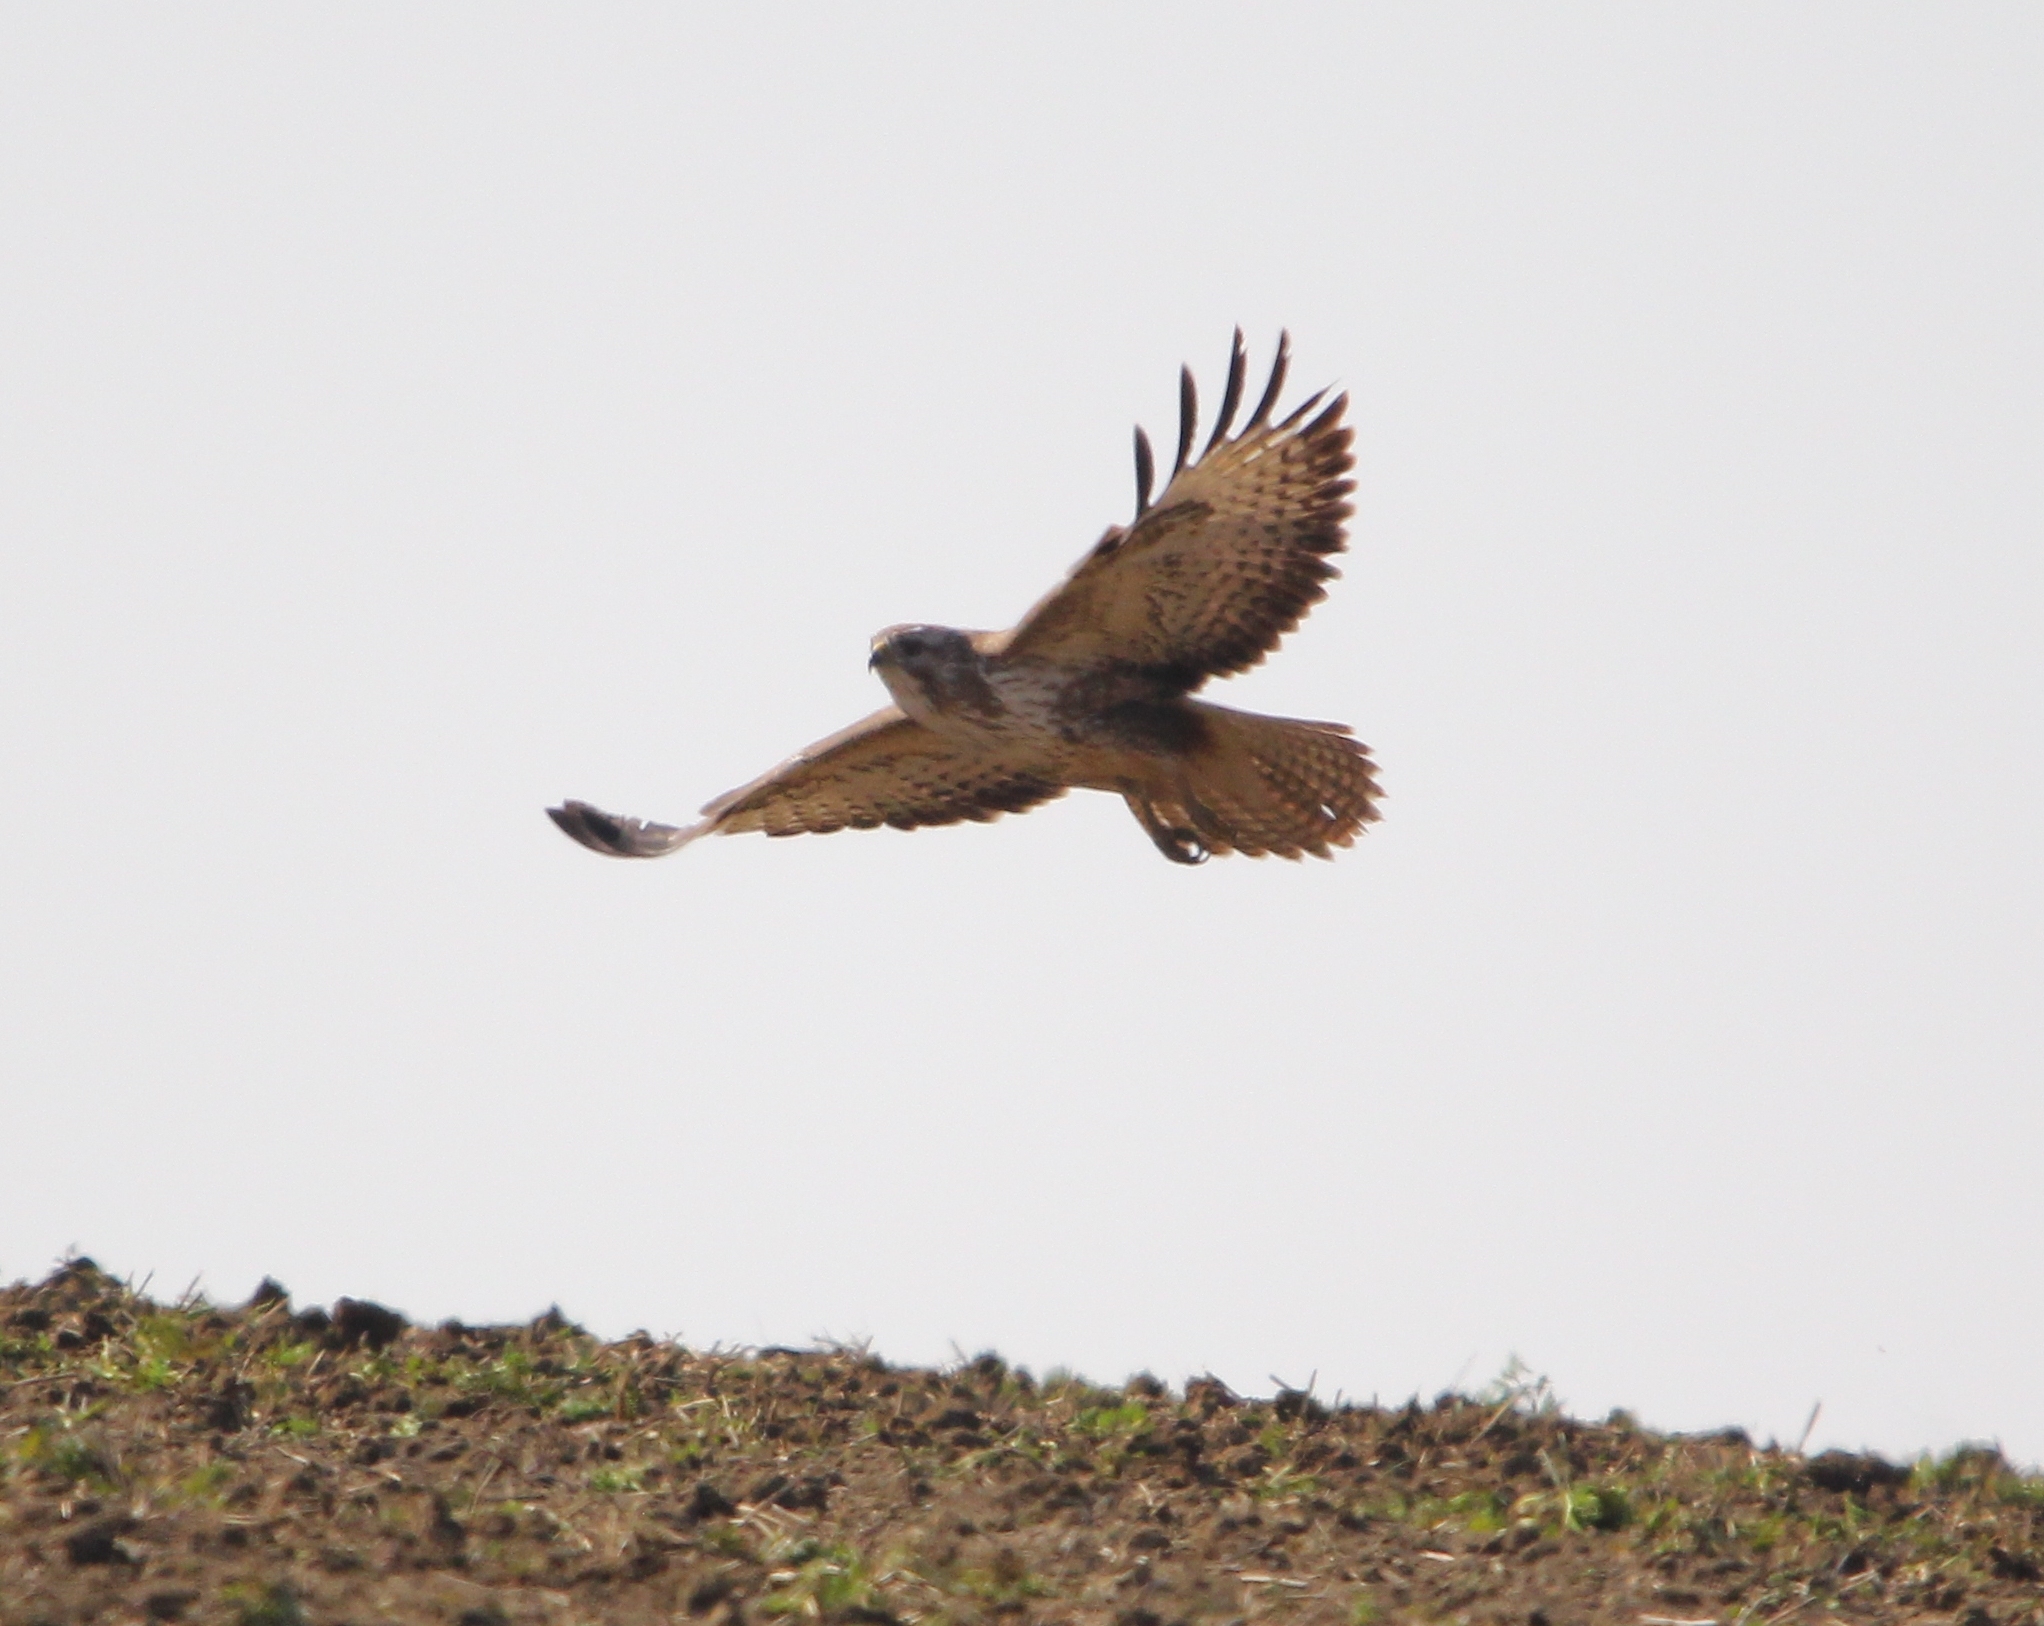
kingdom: Animalia
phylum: Chordata
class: Aves
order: Accipitriformes
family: Accipitridae
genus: Buteo
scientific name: Buteo buteo
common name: Common buzzard
